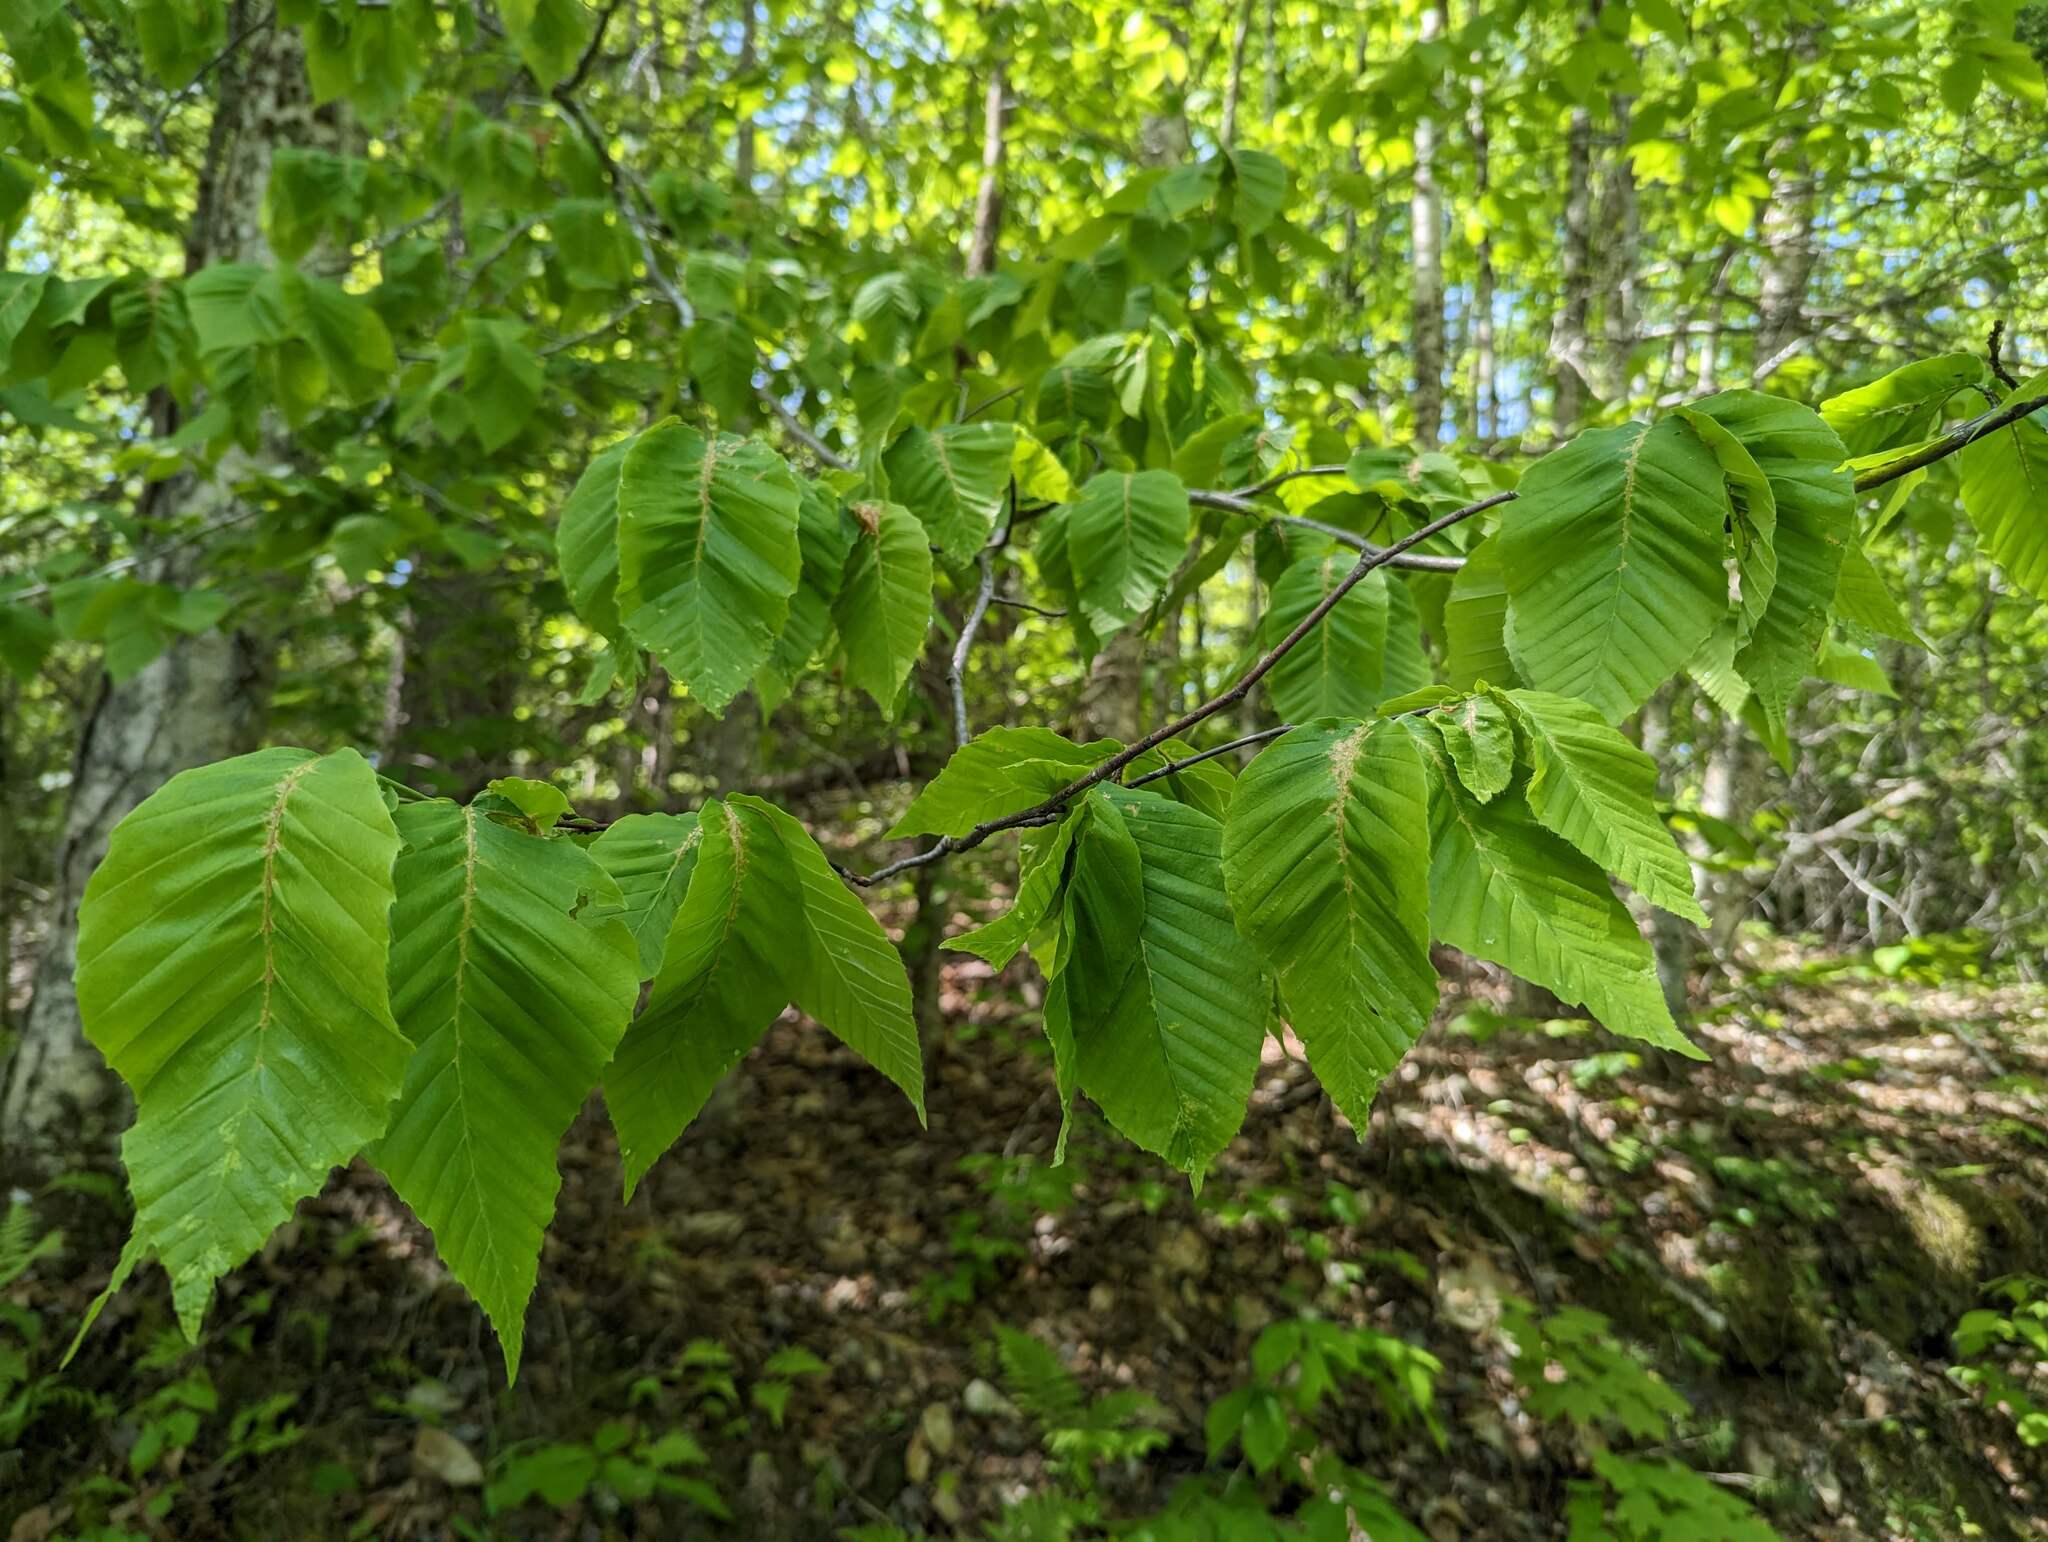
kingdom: Plantae
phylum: Tracheophyta
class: Magnoliopsida
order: Fagales
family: Fagaceae
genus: Fagus
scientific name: Fagus grandifolia
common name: American beech
